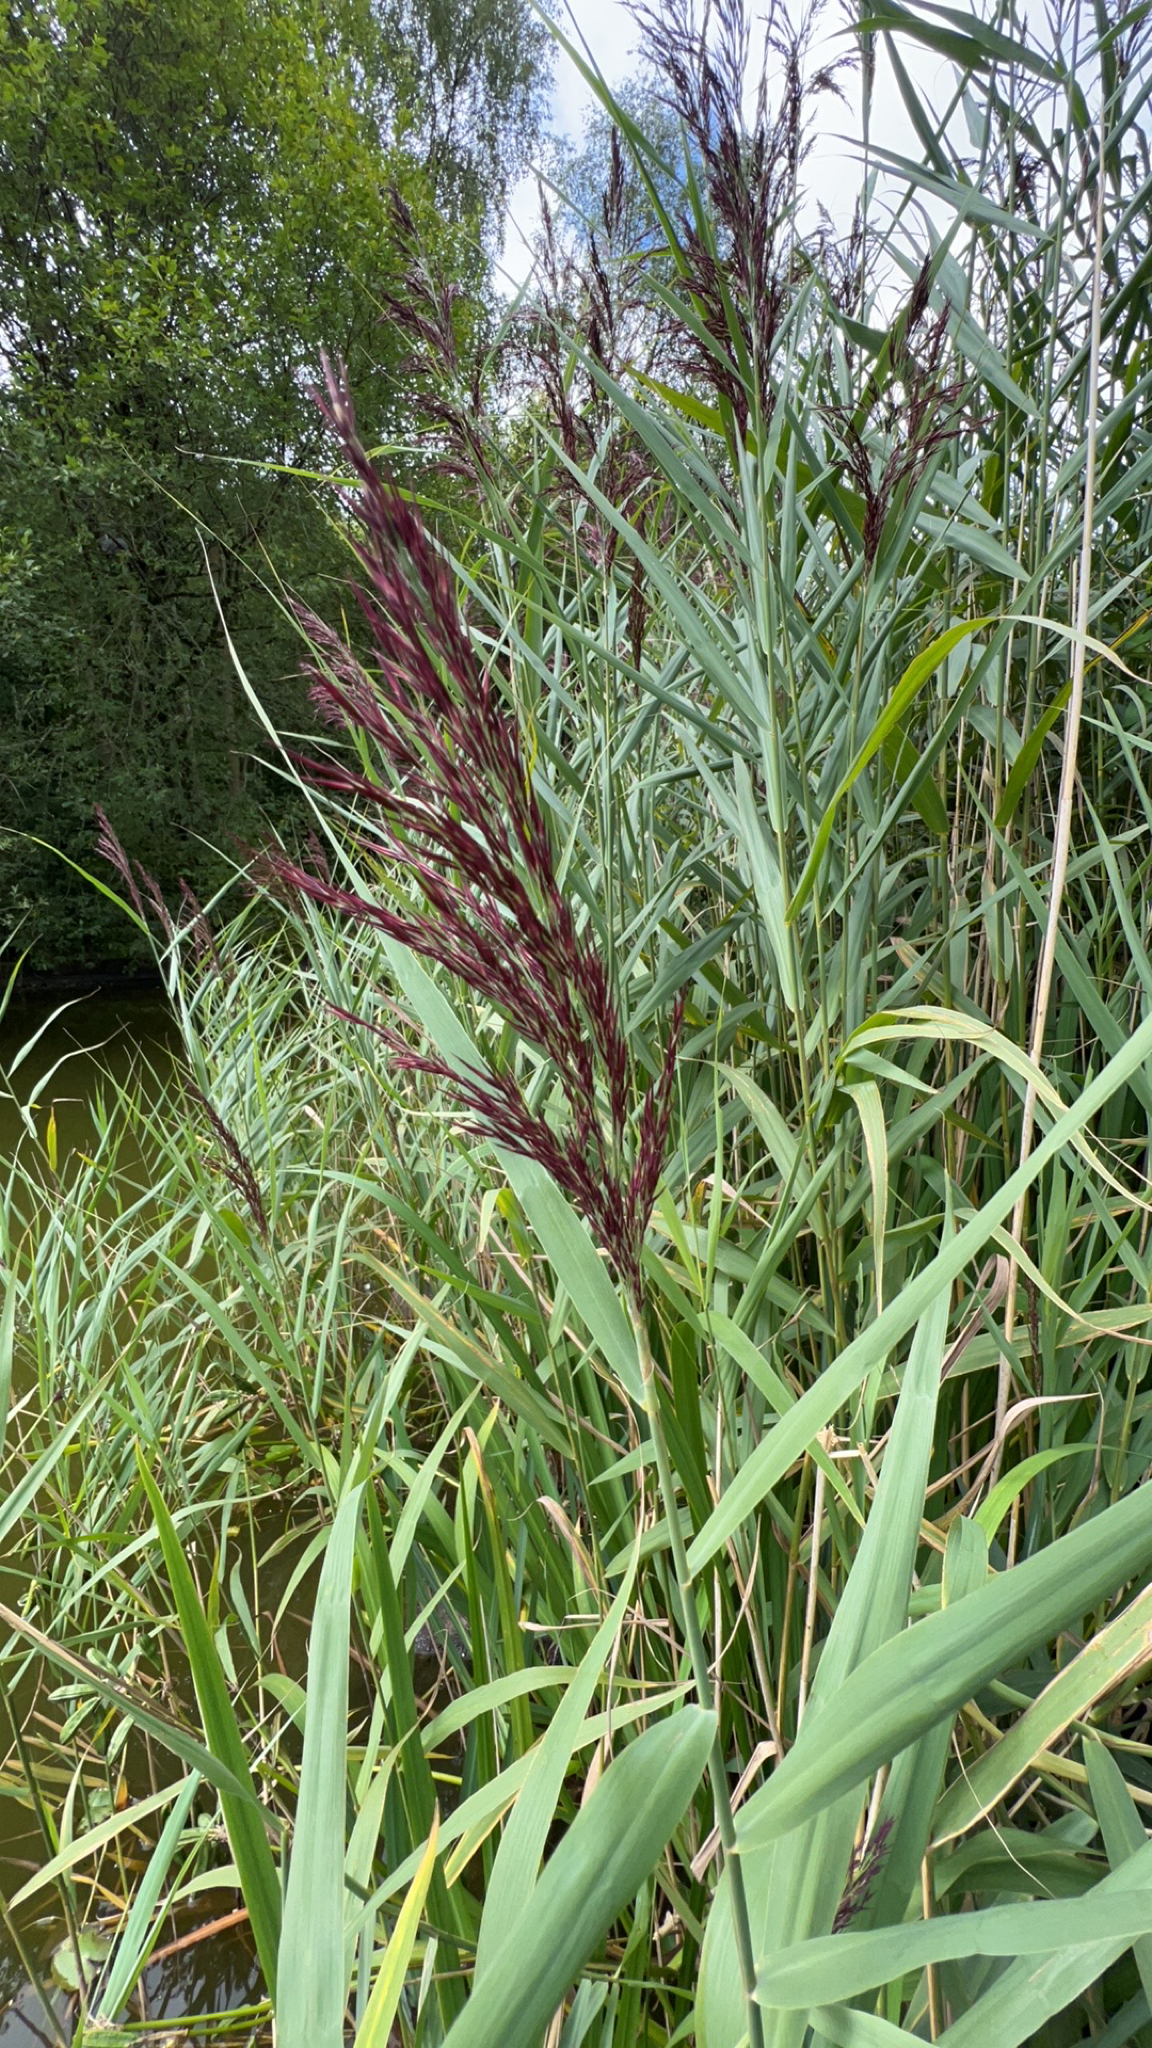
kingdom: Plantae
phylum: Tracheophyta
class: Liliopsida
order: Poales
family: Poaceae
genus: Phragmites
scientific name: Phragmites australis
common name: Common reed
